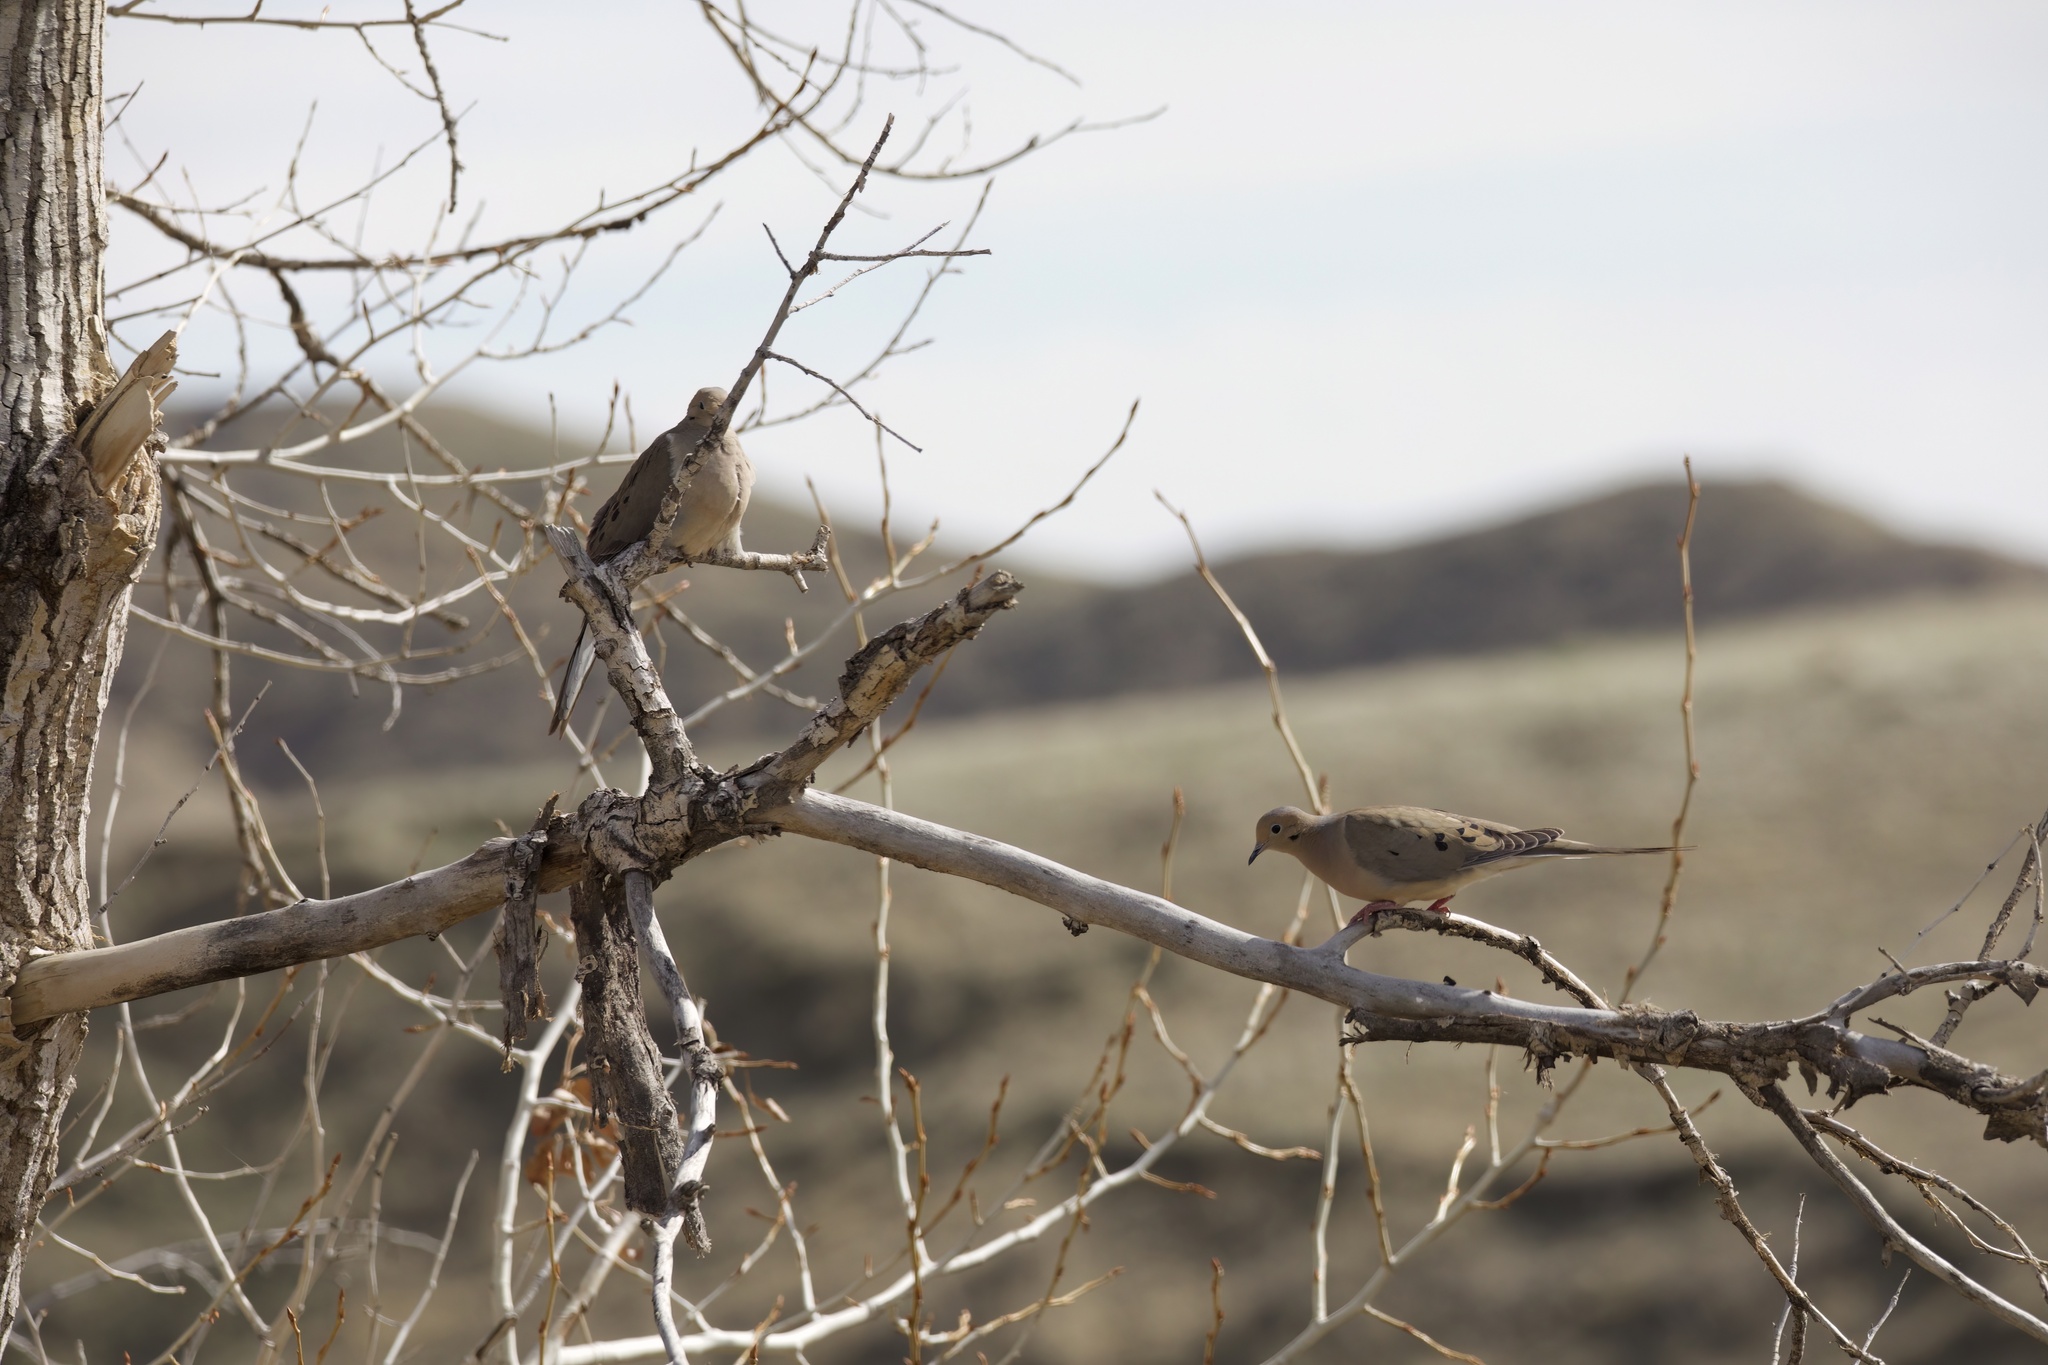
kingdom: Animalia
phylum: Chordata
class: Aves
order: Columbiformes
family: Columbidae
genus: Zenaida
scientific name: Zenaida macroura
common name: Mourning dove
